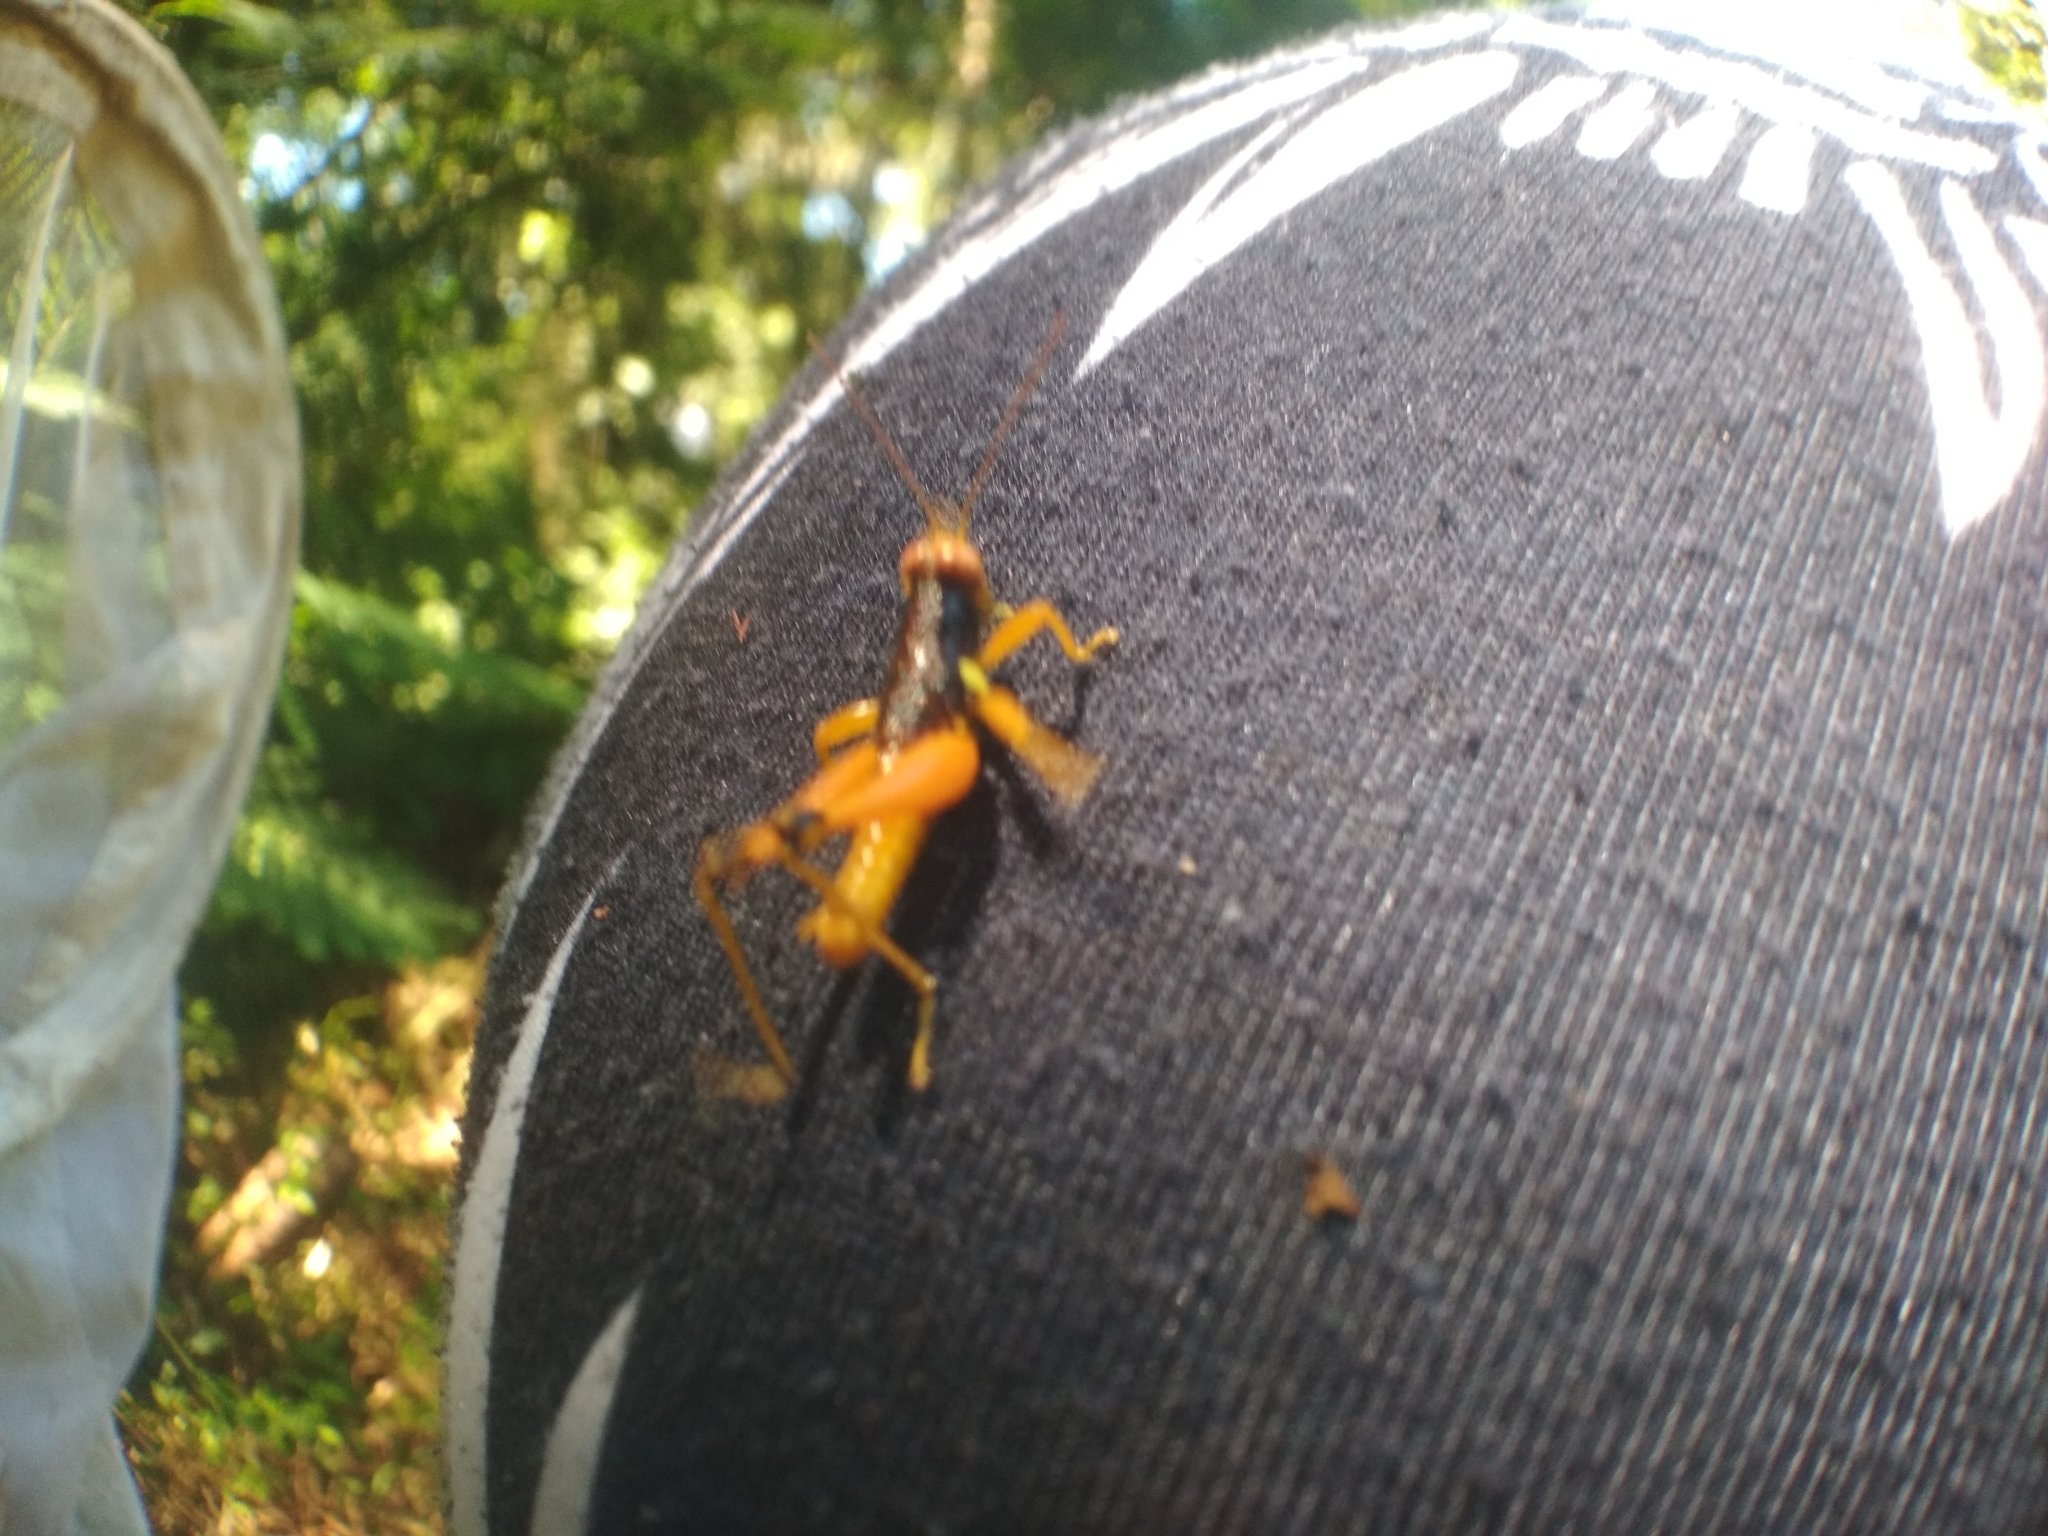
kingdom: Animalia
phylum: Arthropoda
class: Insecta
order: Orthoptera
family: Acrididae
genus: Psiloscirtus
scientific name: Psiloscirtus apterus
